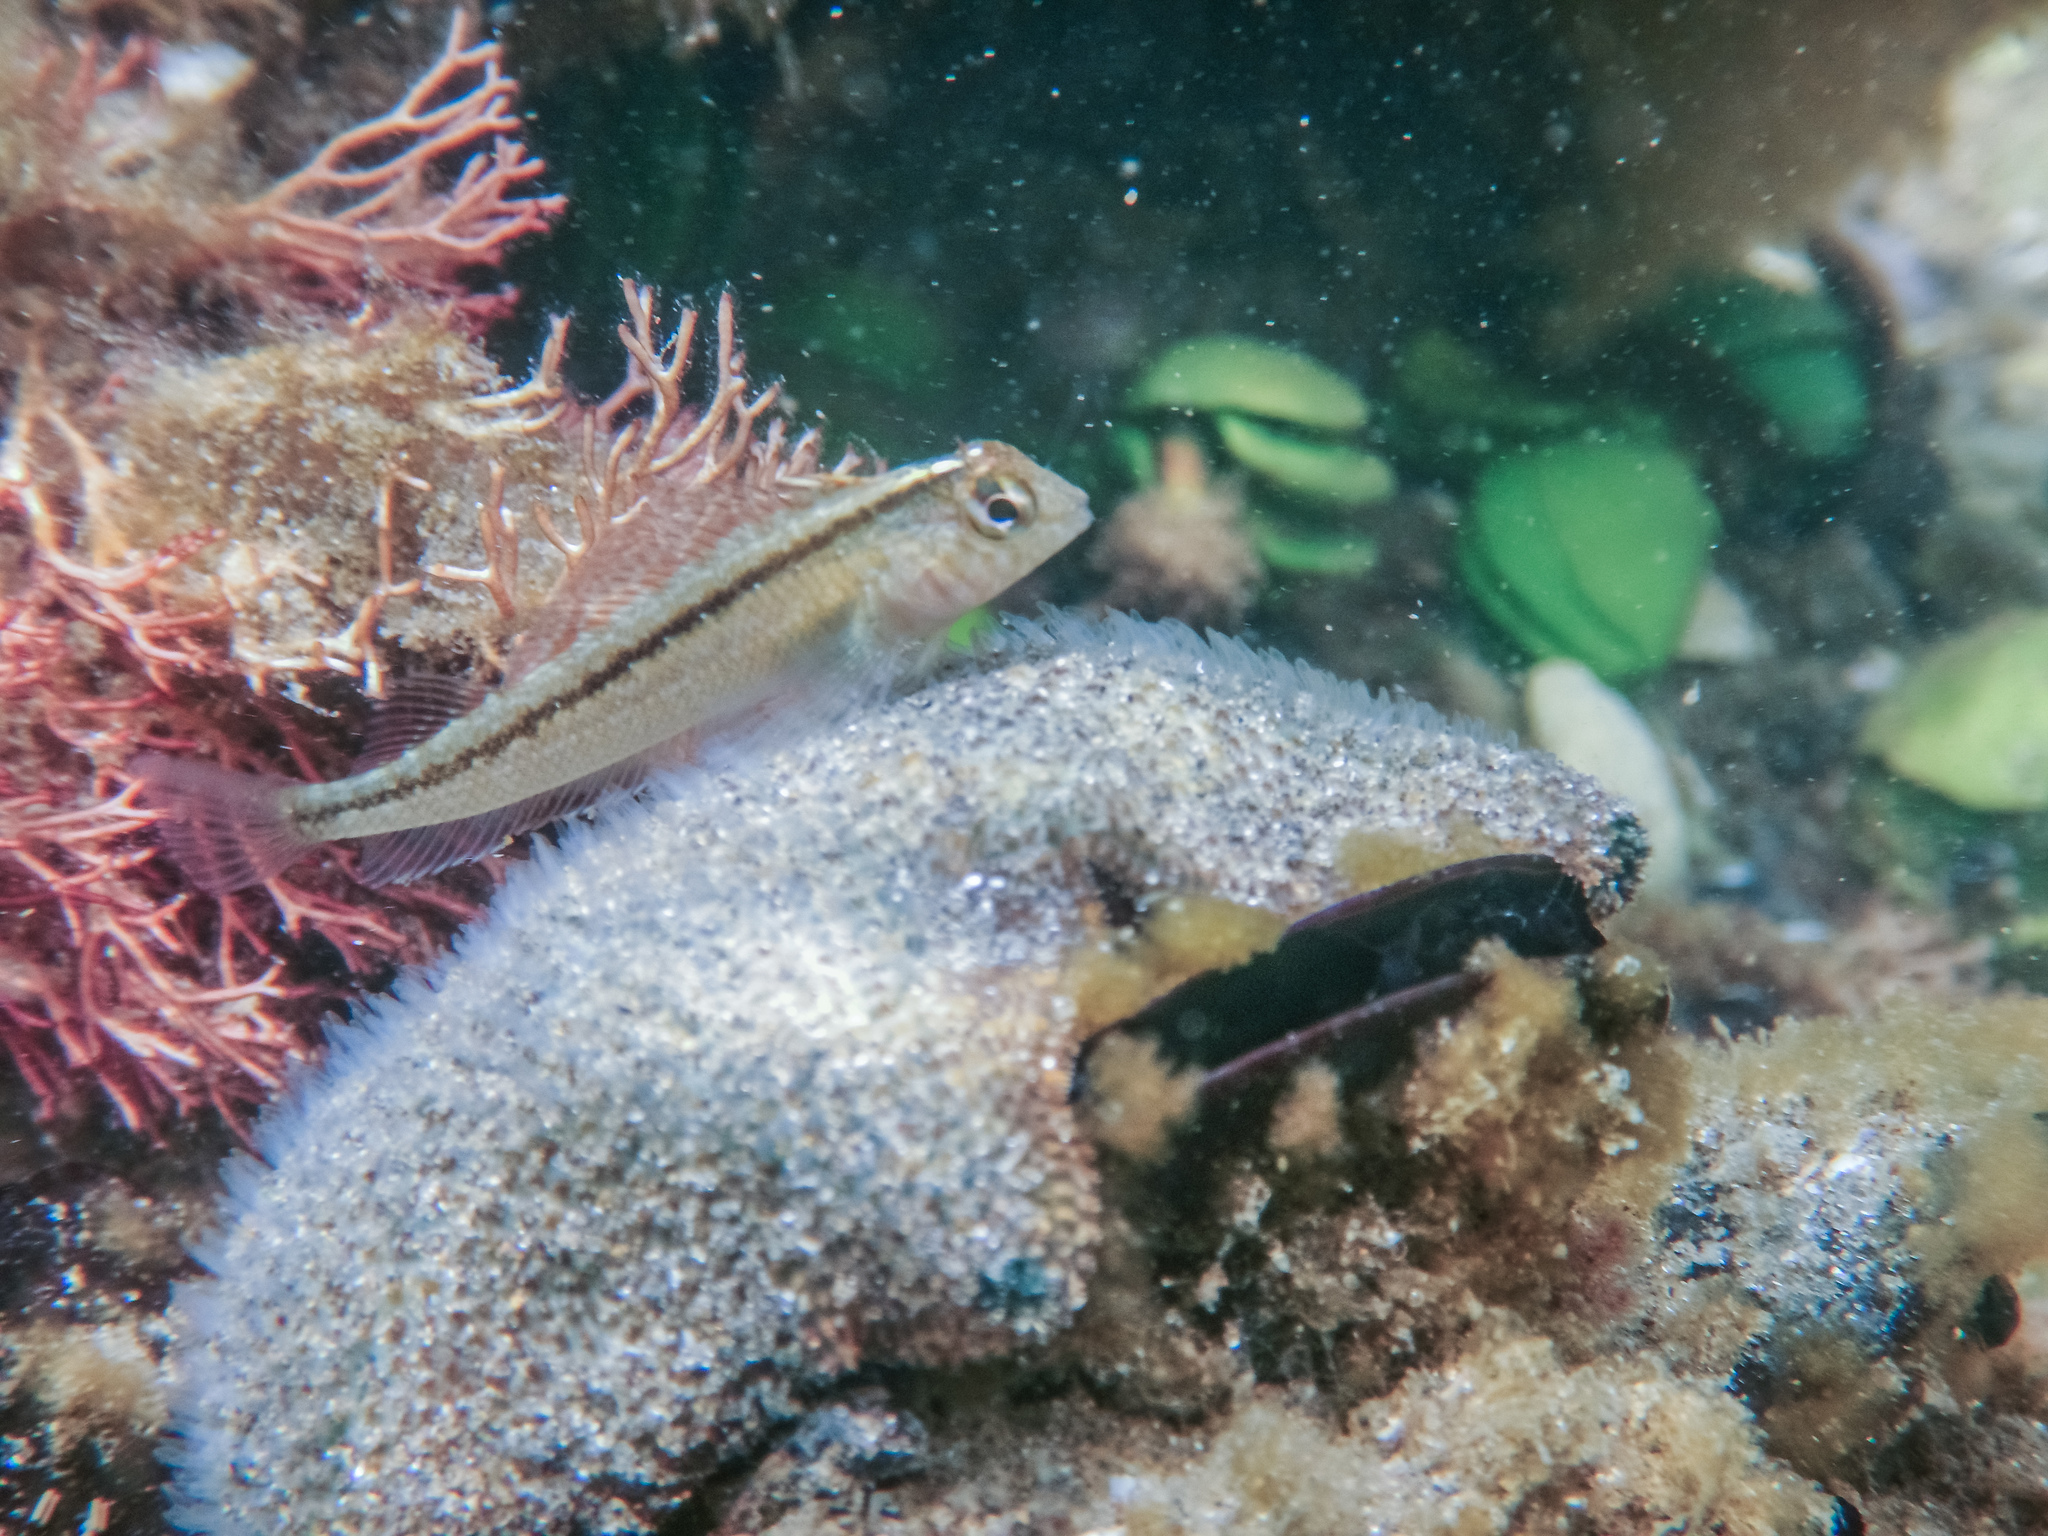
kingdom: Animalia
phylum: Chordata
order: Perciformes
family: Tripterygiidae
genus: Forsterygion
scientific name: Forsterygion lapillum
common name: Common triplefin
